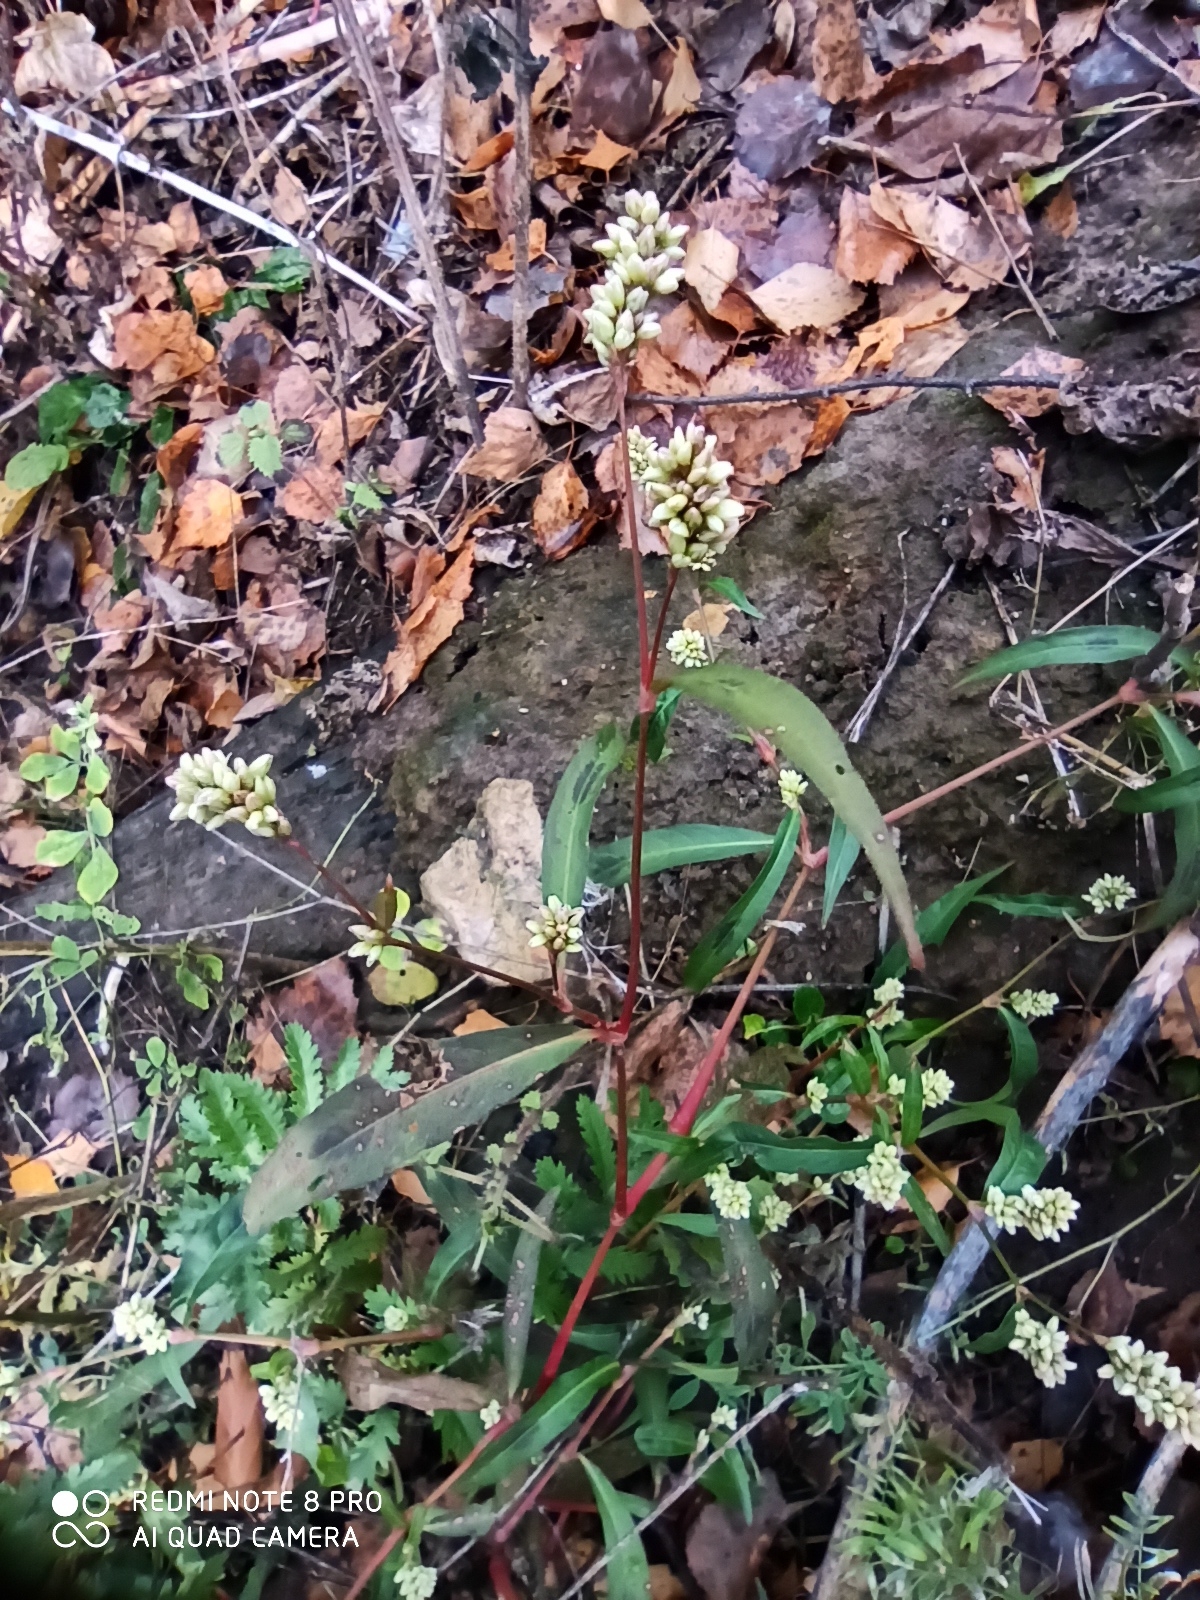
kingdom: Plantae
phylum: Tracheophyta
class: Magnoliopsida
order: Caryophyllales
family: Polygonaceae
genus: Persicaria
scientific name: Persicaria maculosa
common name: Redshank
